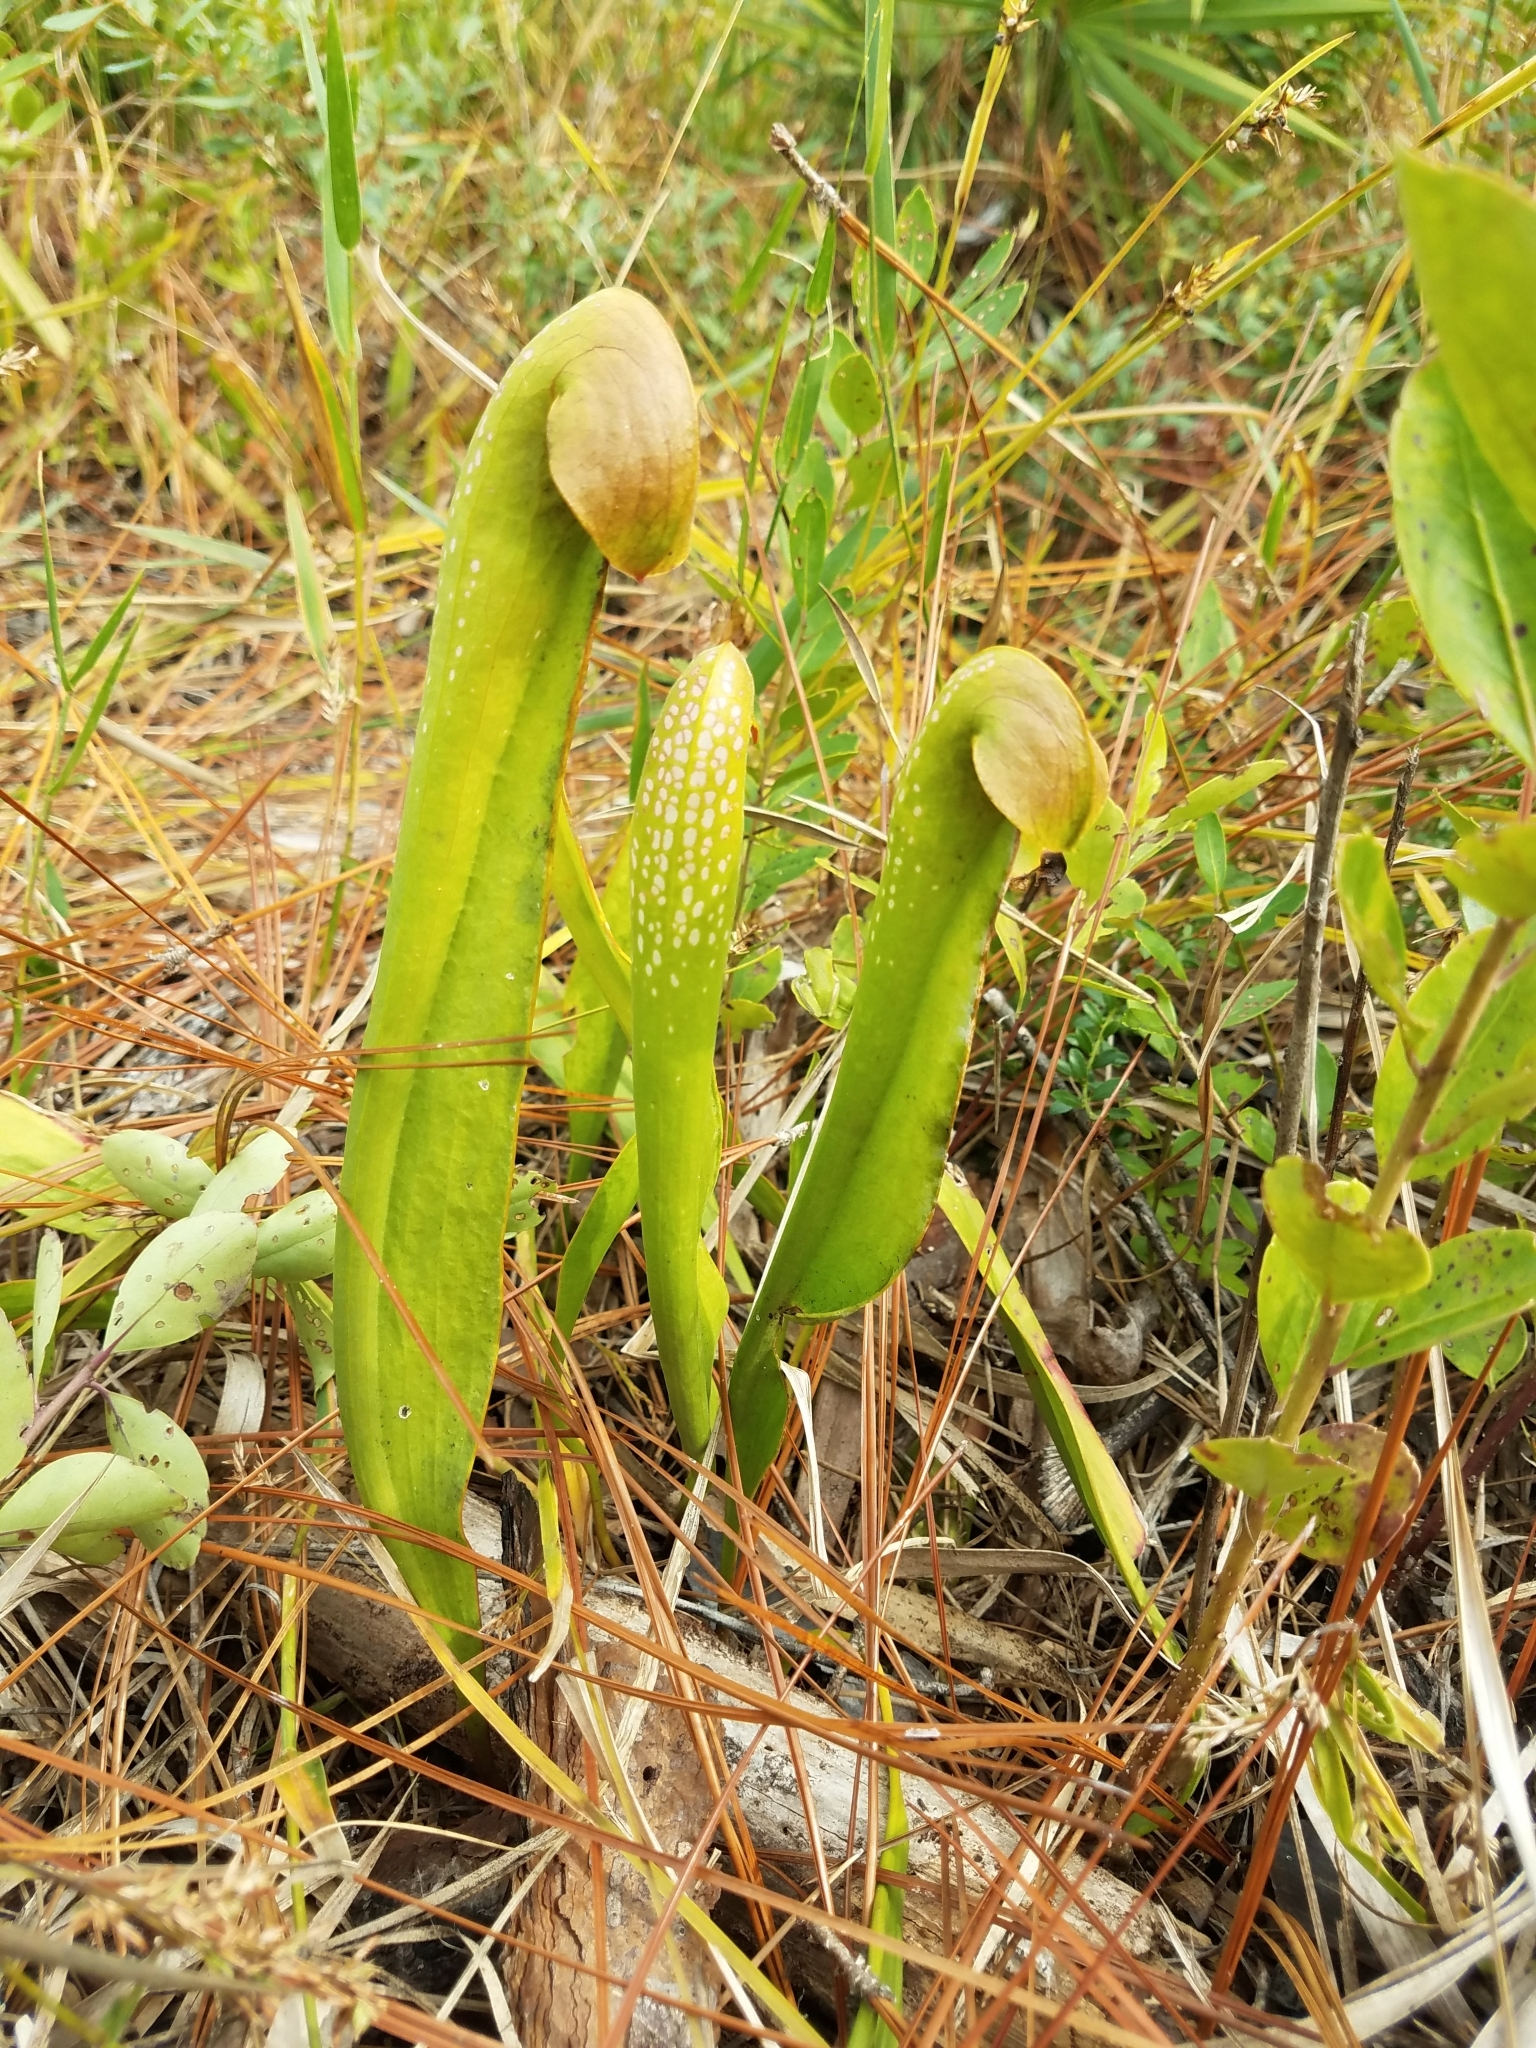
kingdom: Plantae
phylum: Tracheophyta
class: Magnoliopsida
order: Ericales
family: Sarraceniaceae
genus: Sarracenia
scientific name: Sarracenia minor
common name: Rainhat-trumpet
